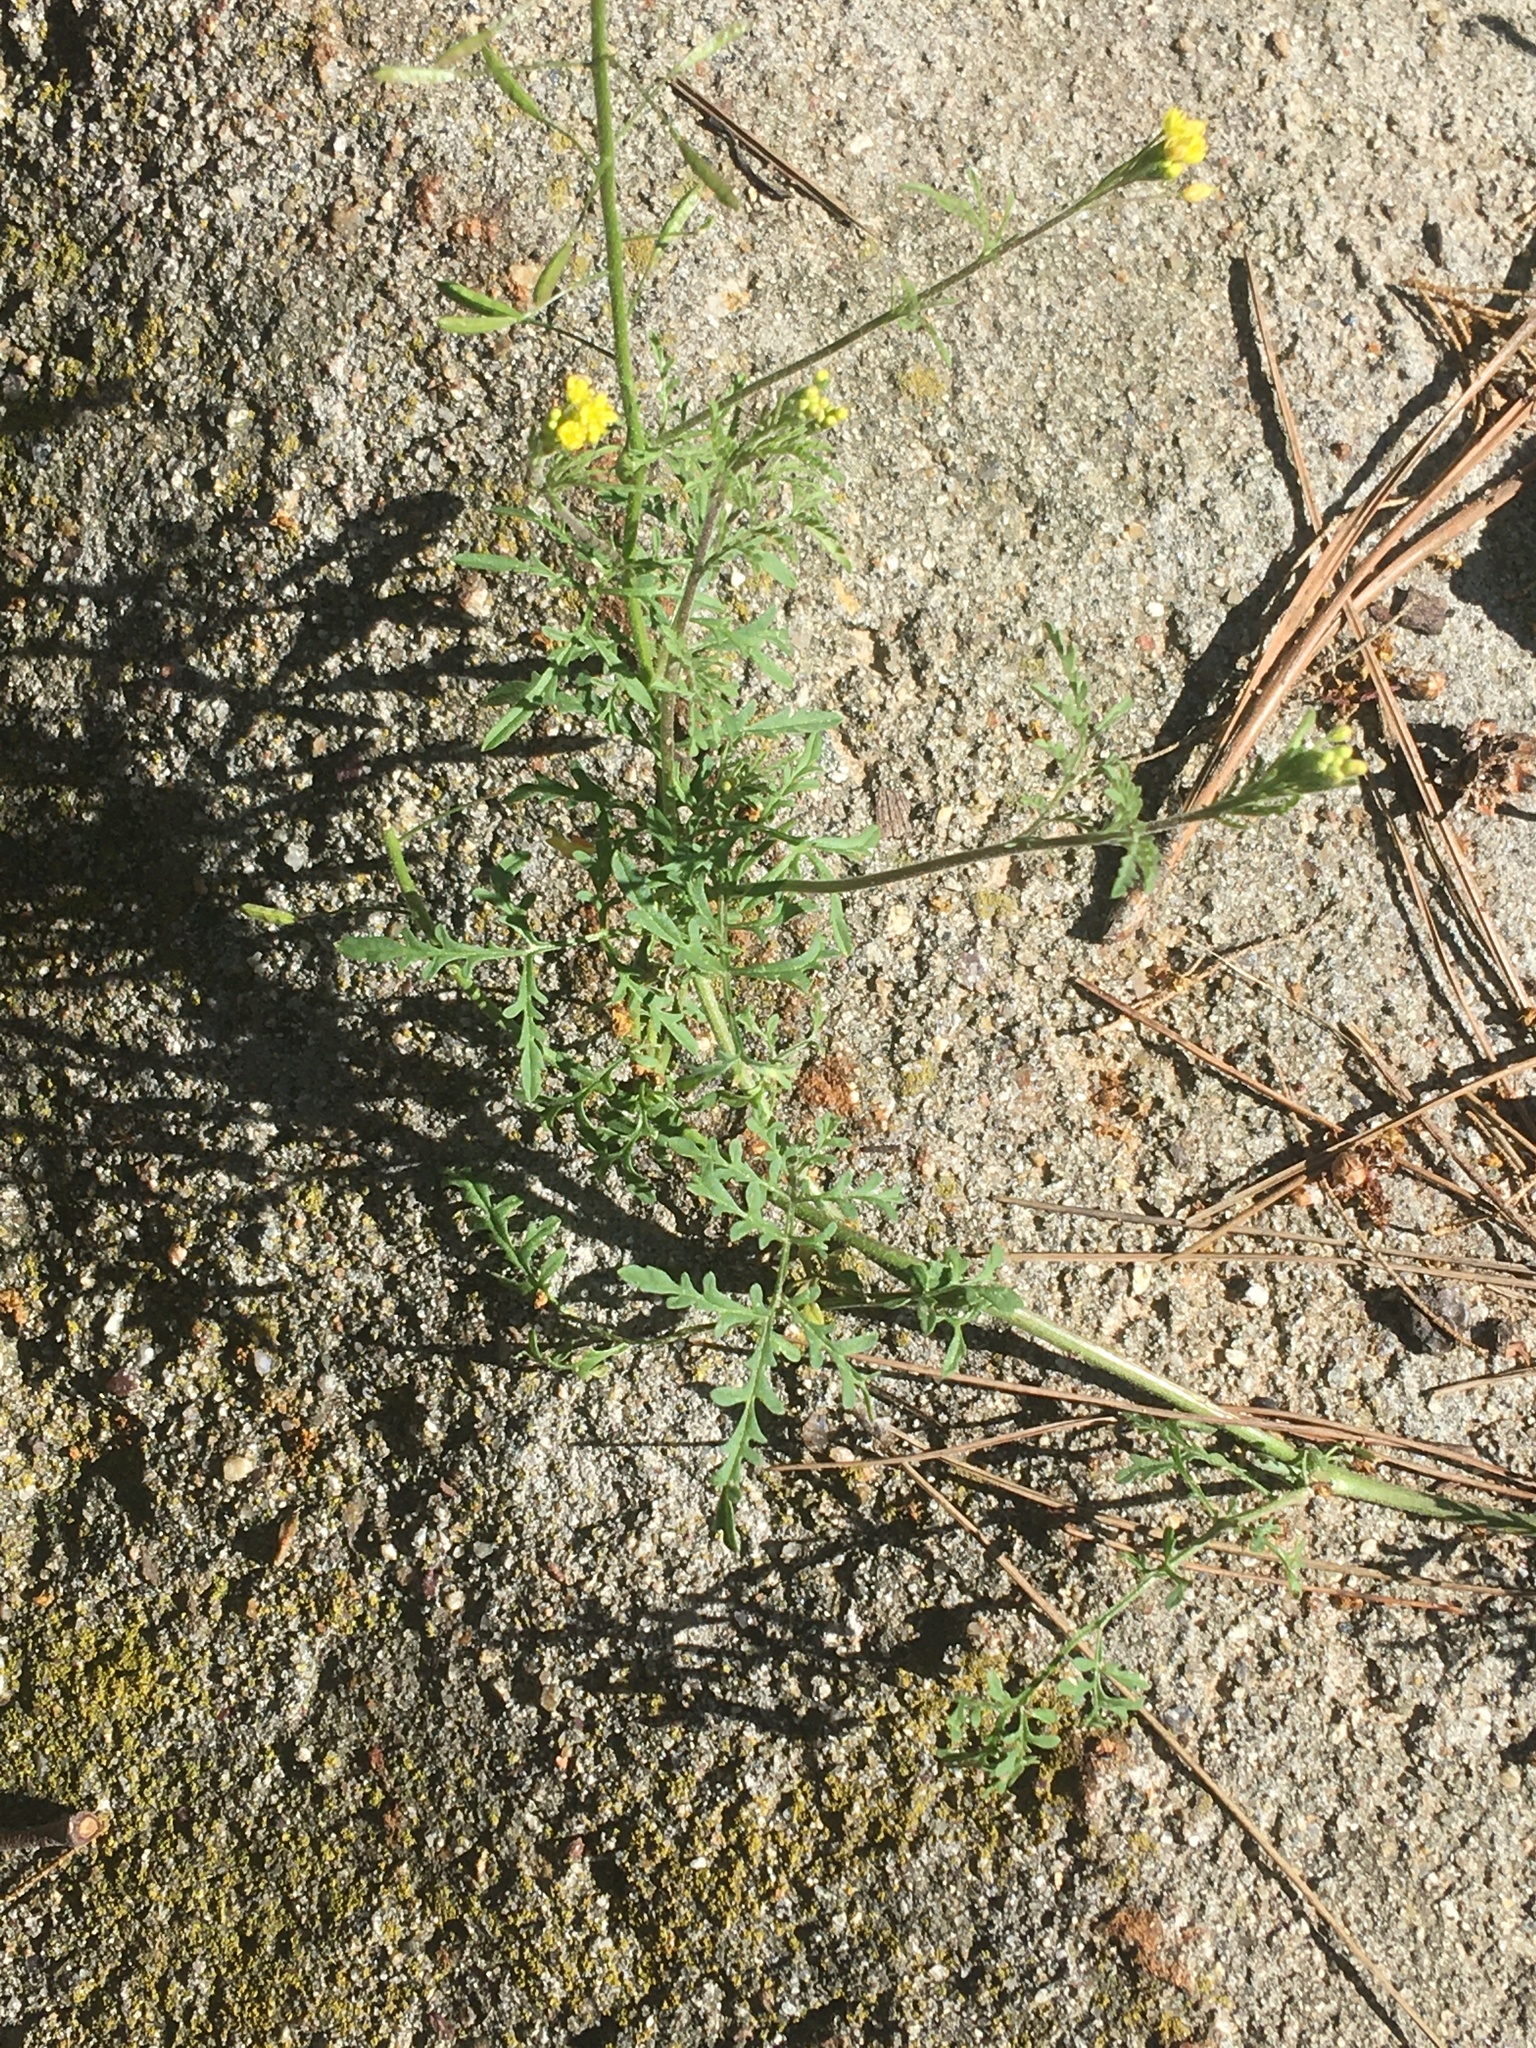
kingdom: Plantae
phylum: Tracheophyta
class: Magnoliopsida
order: Brassicales
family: Brassicaceae
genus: Descurainia
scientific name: Descurainia pinnata
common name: Western tansy mustard
